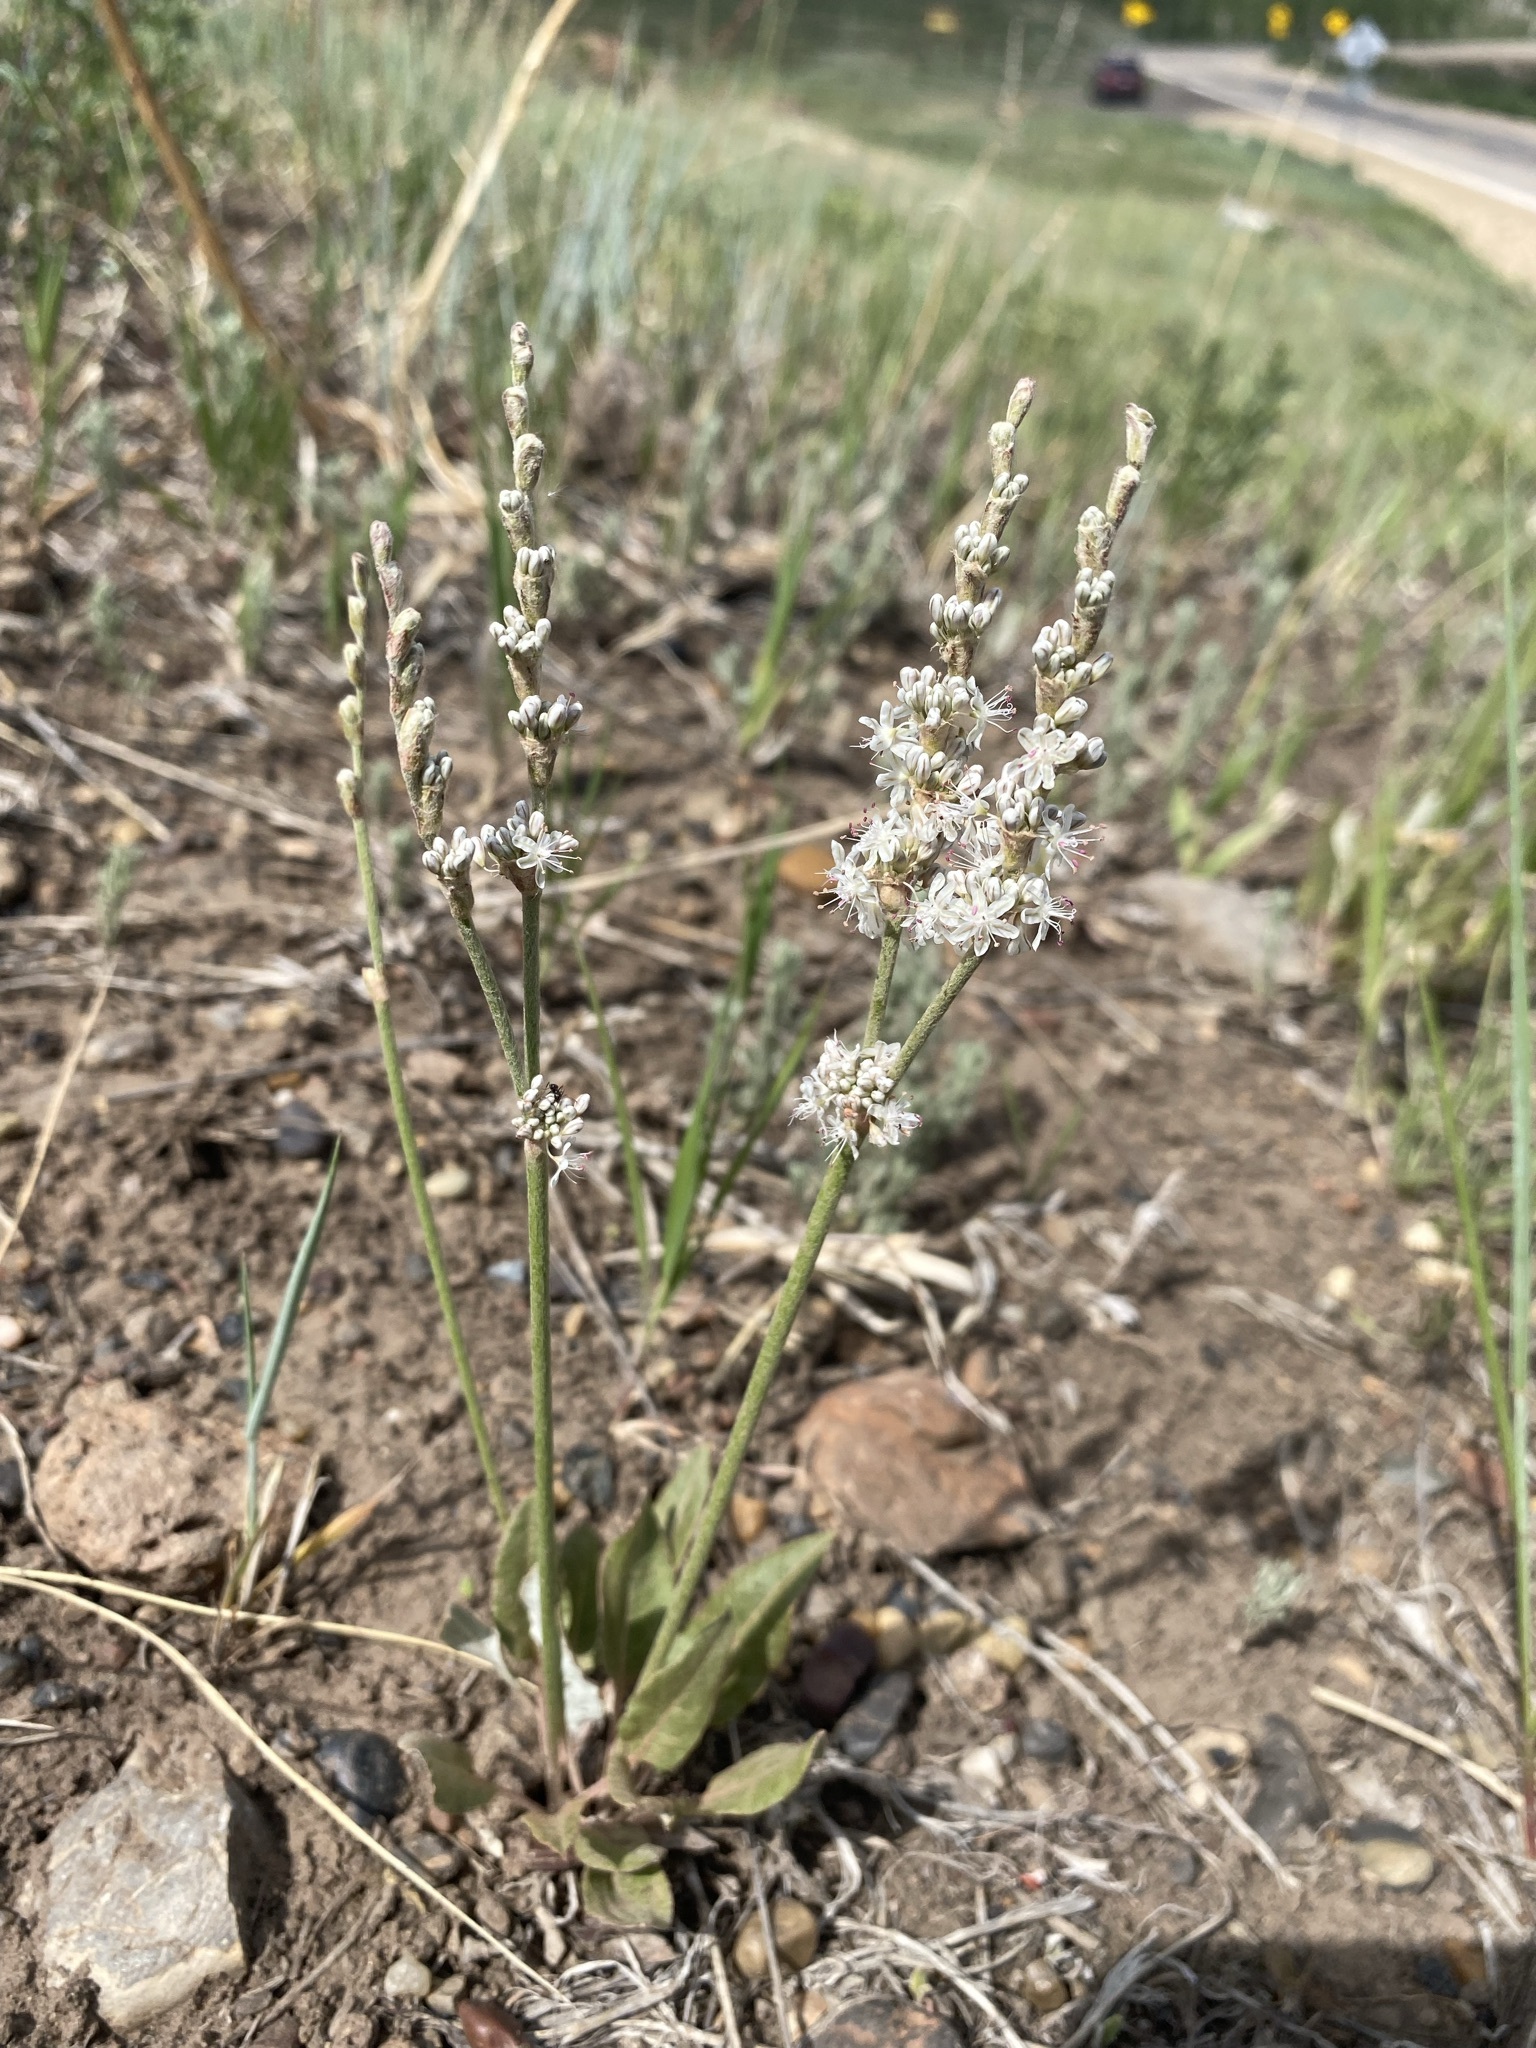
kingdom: Plantae
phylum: Tracheophyta
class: Magnoliopsida
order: Caryophyllales
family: Polygonaceae
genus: Eriogonum
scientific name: Eriogonum racemosum
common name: Redroot wild buckwheat
